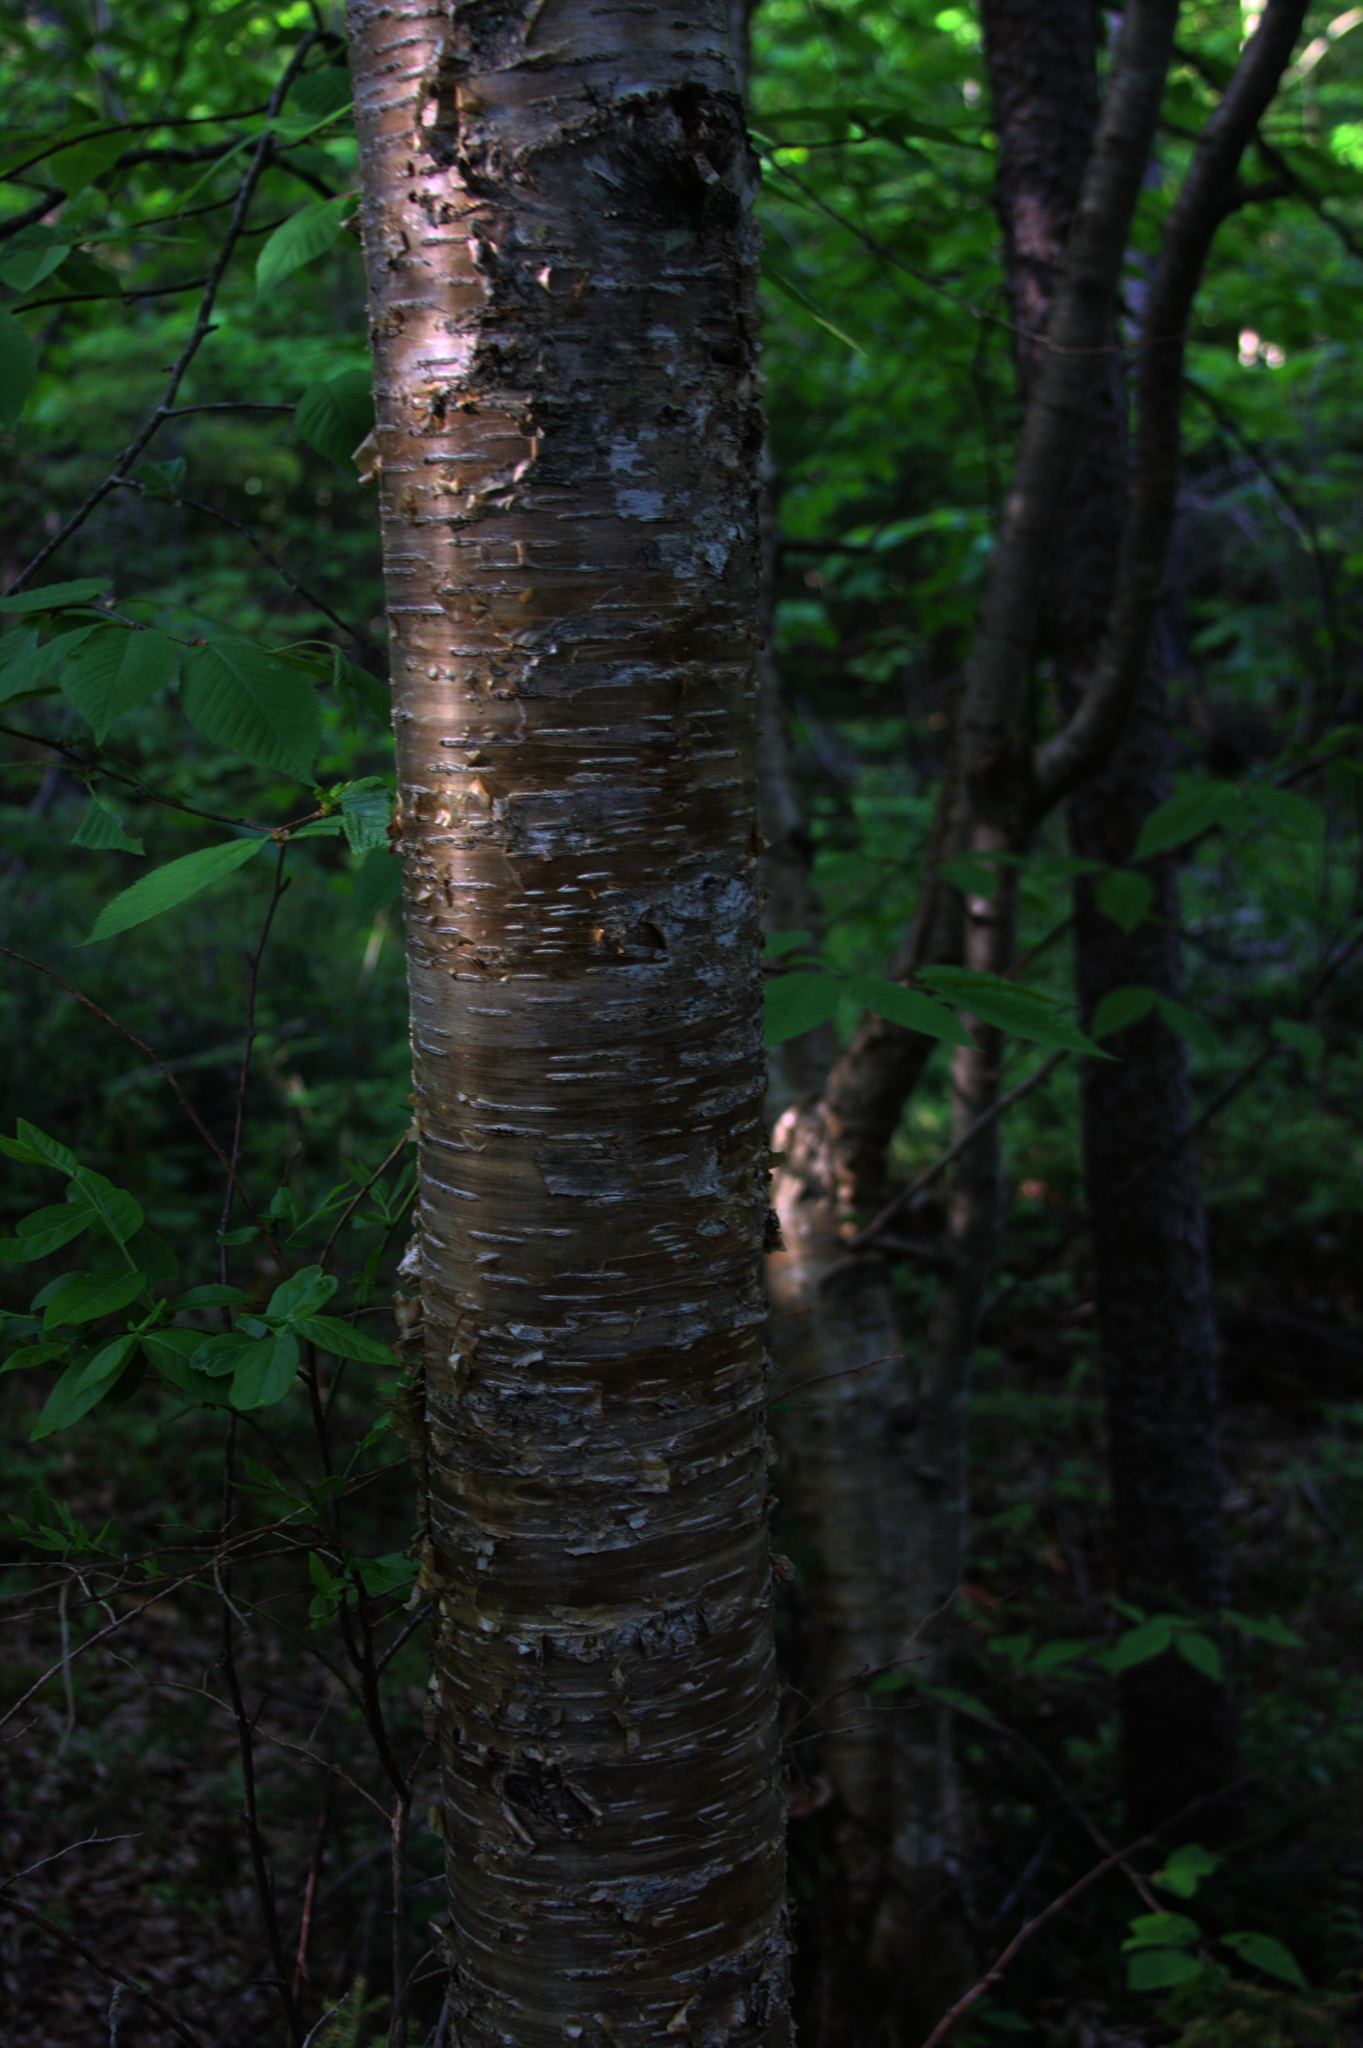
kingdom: Plantae
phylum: Tracheophyta
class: Magnoliopsida
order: Fagales
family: Betulaceae
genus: Betula
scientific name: Betula alleghaniensis
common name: Yellow birch
